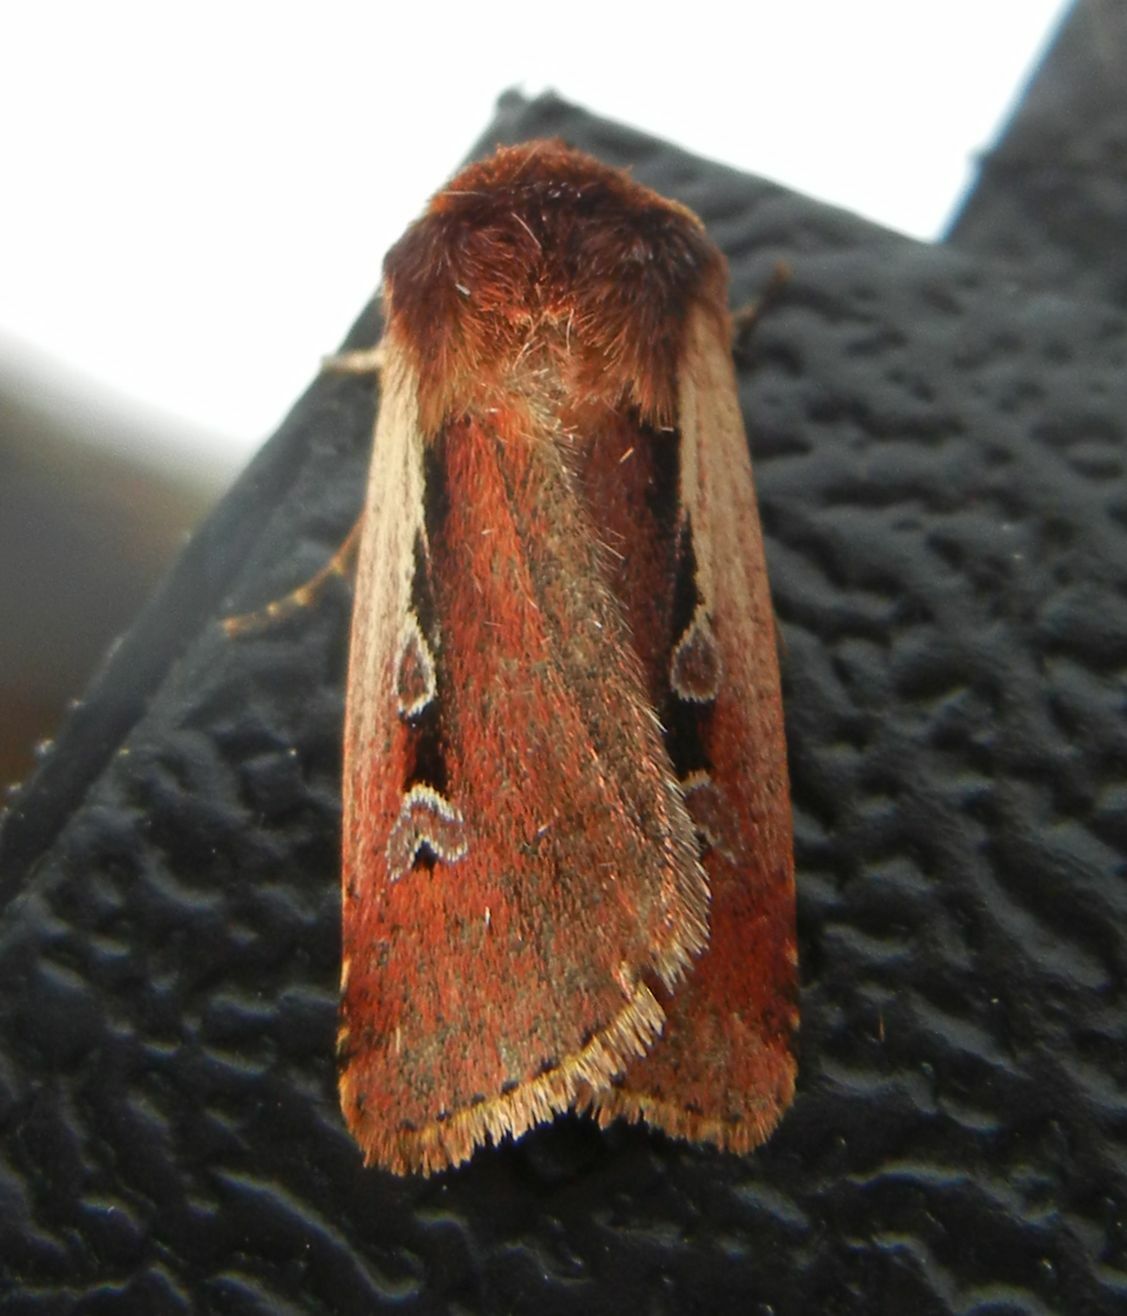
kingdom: Animalia
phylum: Arthropoda
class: Insecta
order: Lepidoptera
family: Noctuidae
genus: Ochropleura
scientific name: Ochropleura plecta
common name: Flame shoulder
